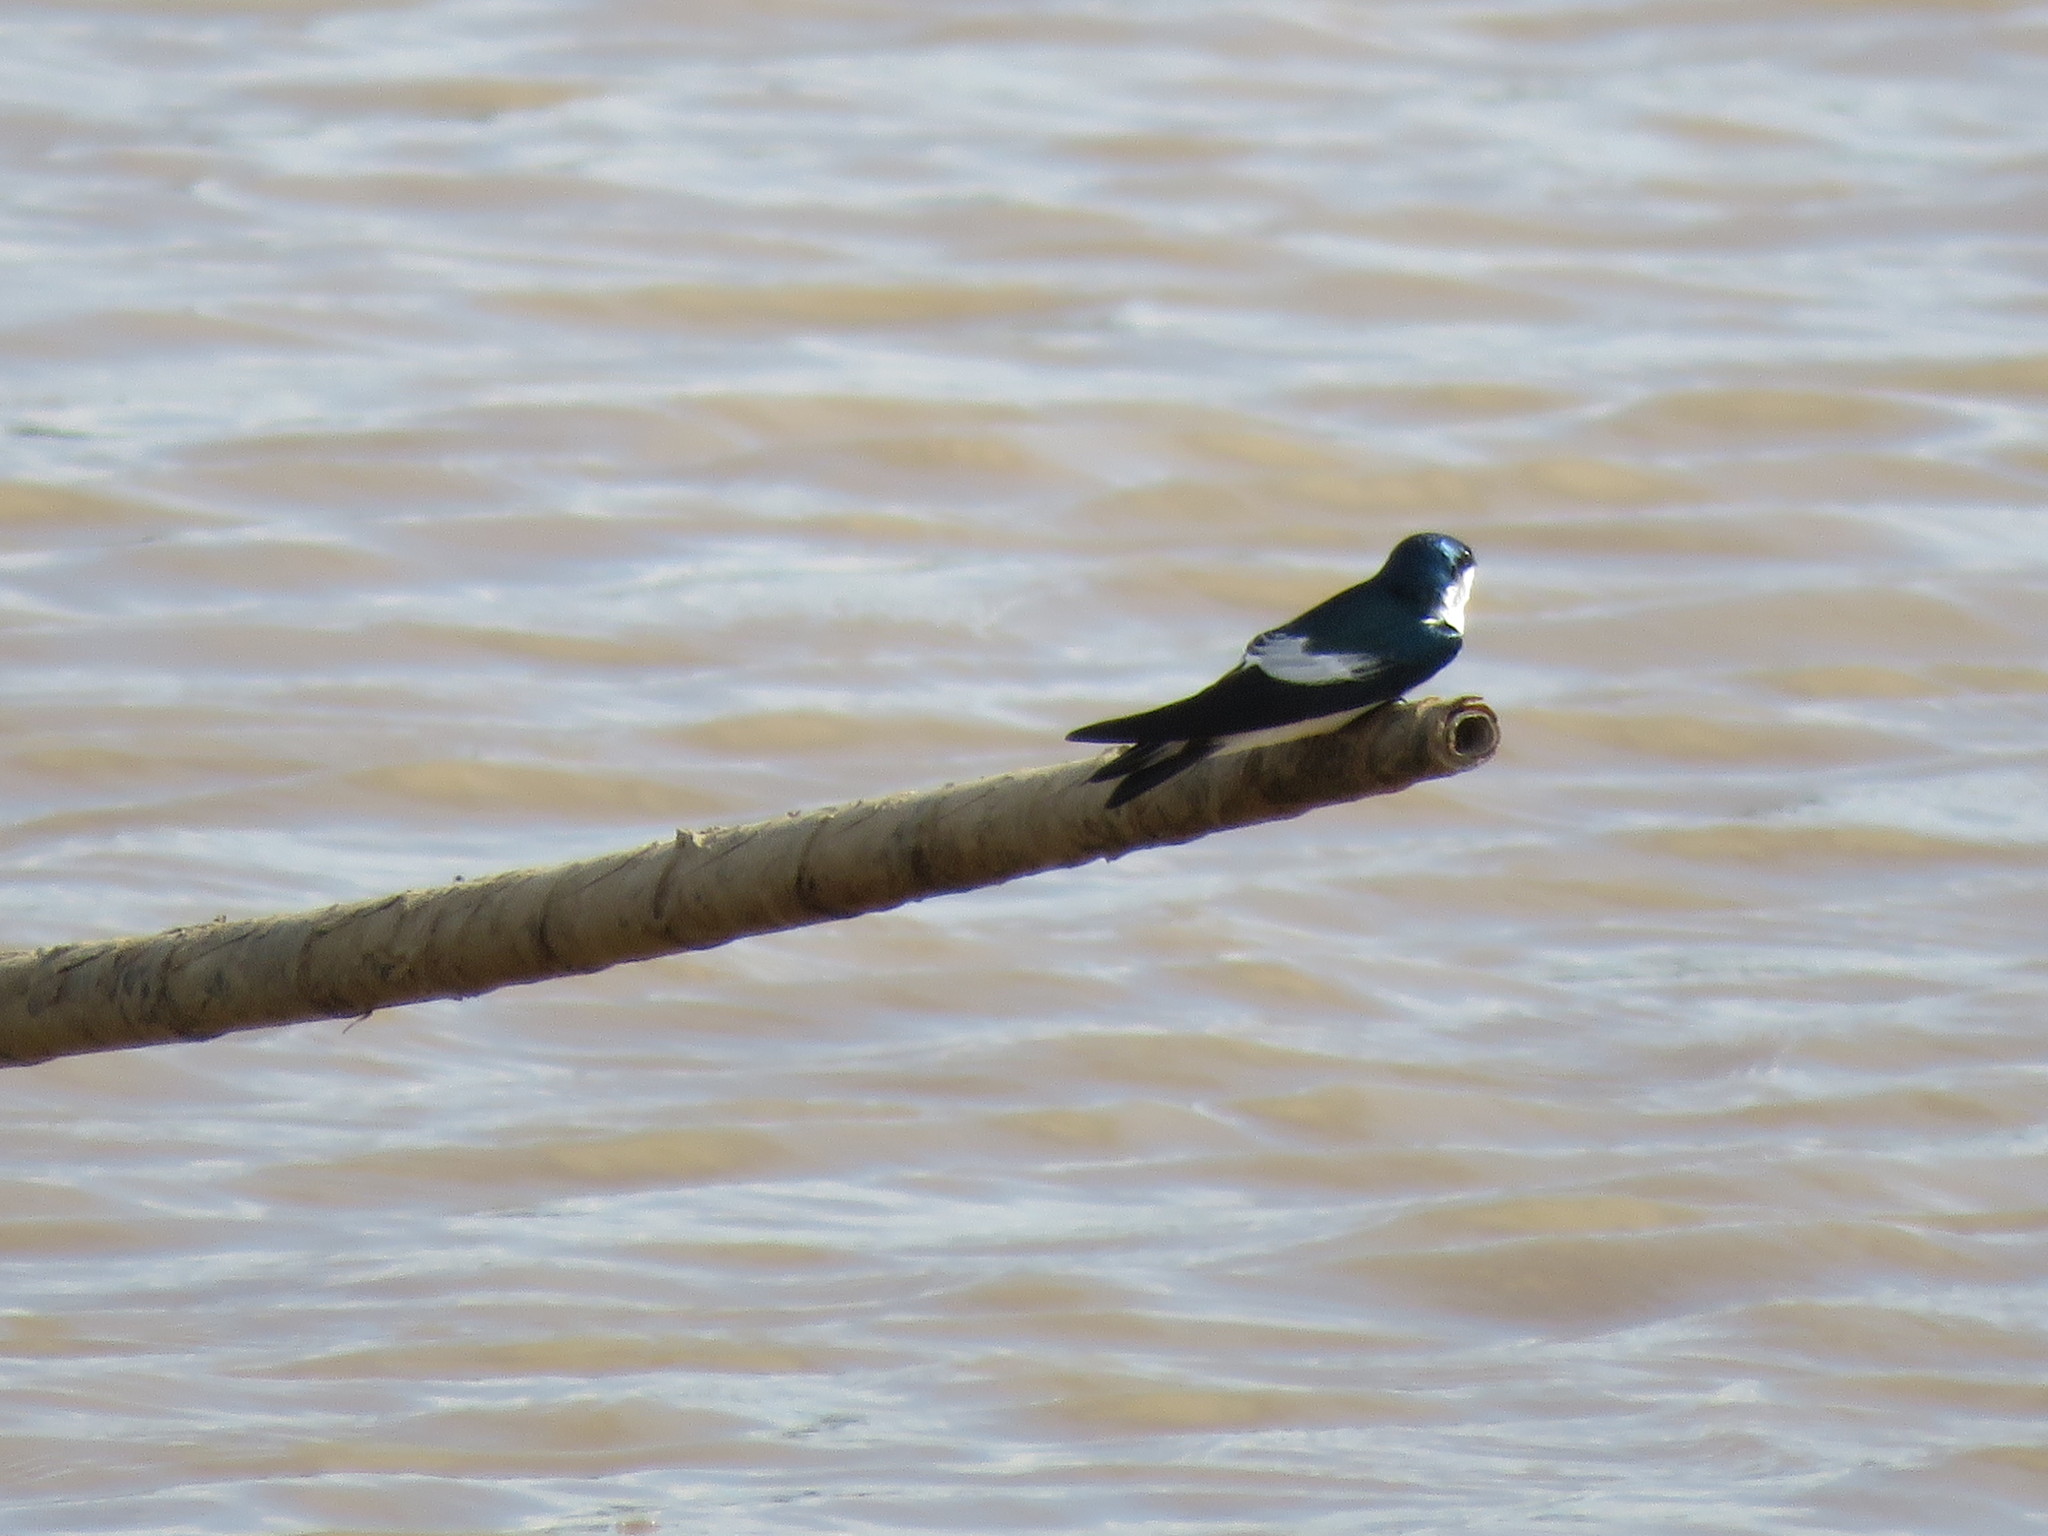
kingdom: Animalia
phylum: Chordata
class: Aves
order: Passeriformes
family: Hirundinidae
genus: Tachycineta
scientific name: Tachycineta albiventer
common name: White-winged swallow
